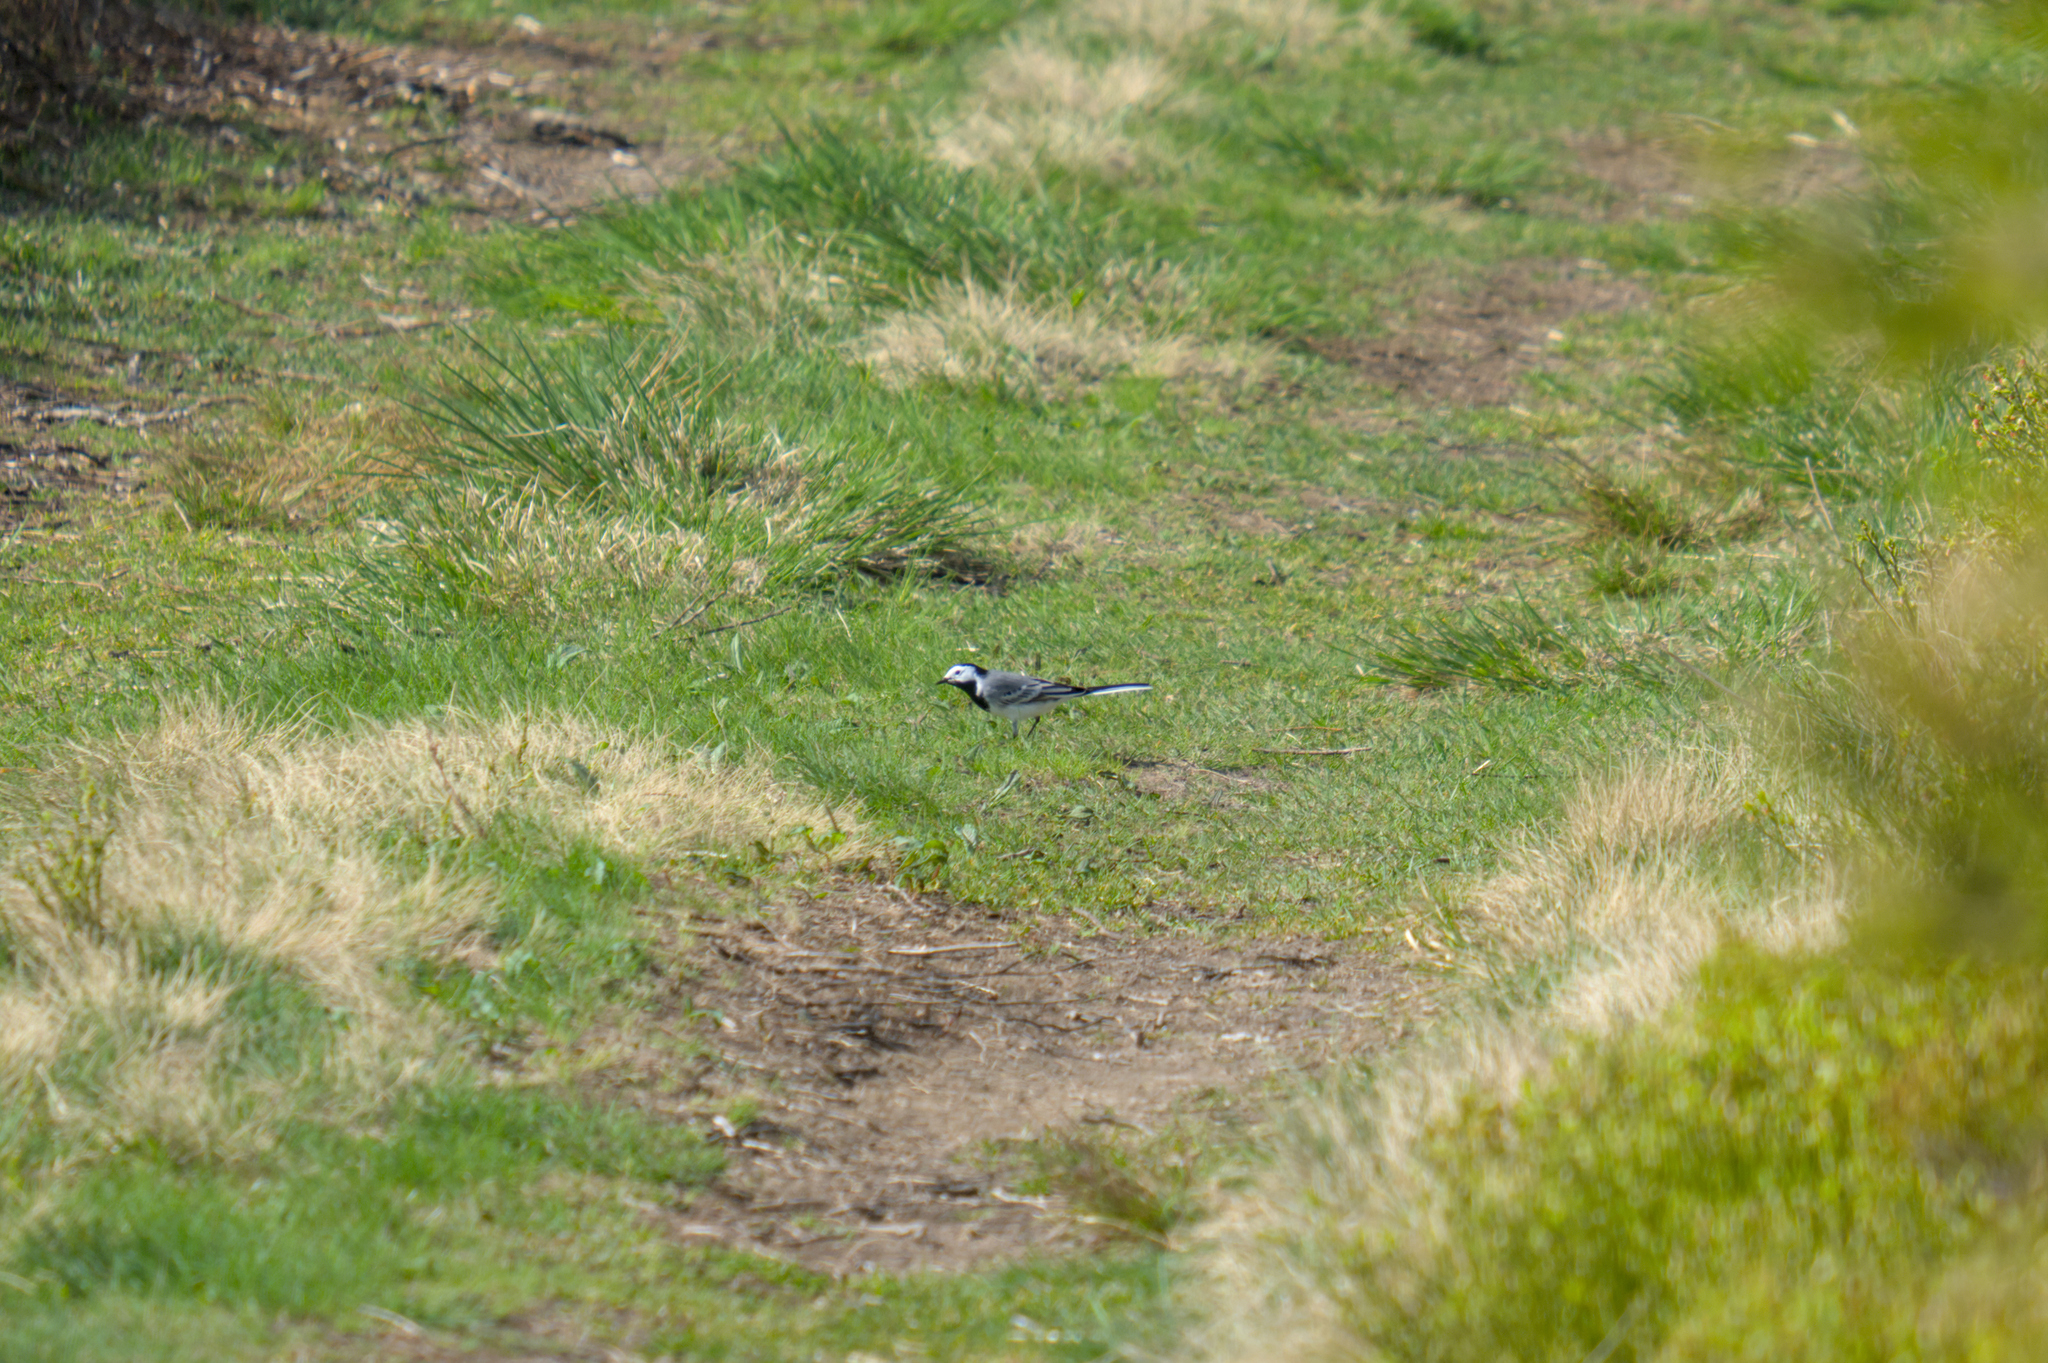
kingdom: Animalia
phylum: Chordata
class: Aves
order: Passeriformes
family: Motacillidae
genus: Motacilla
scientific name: Motacilla alba
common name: White wagtail
